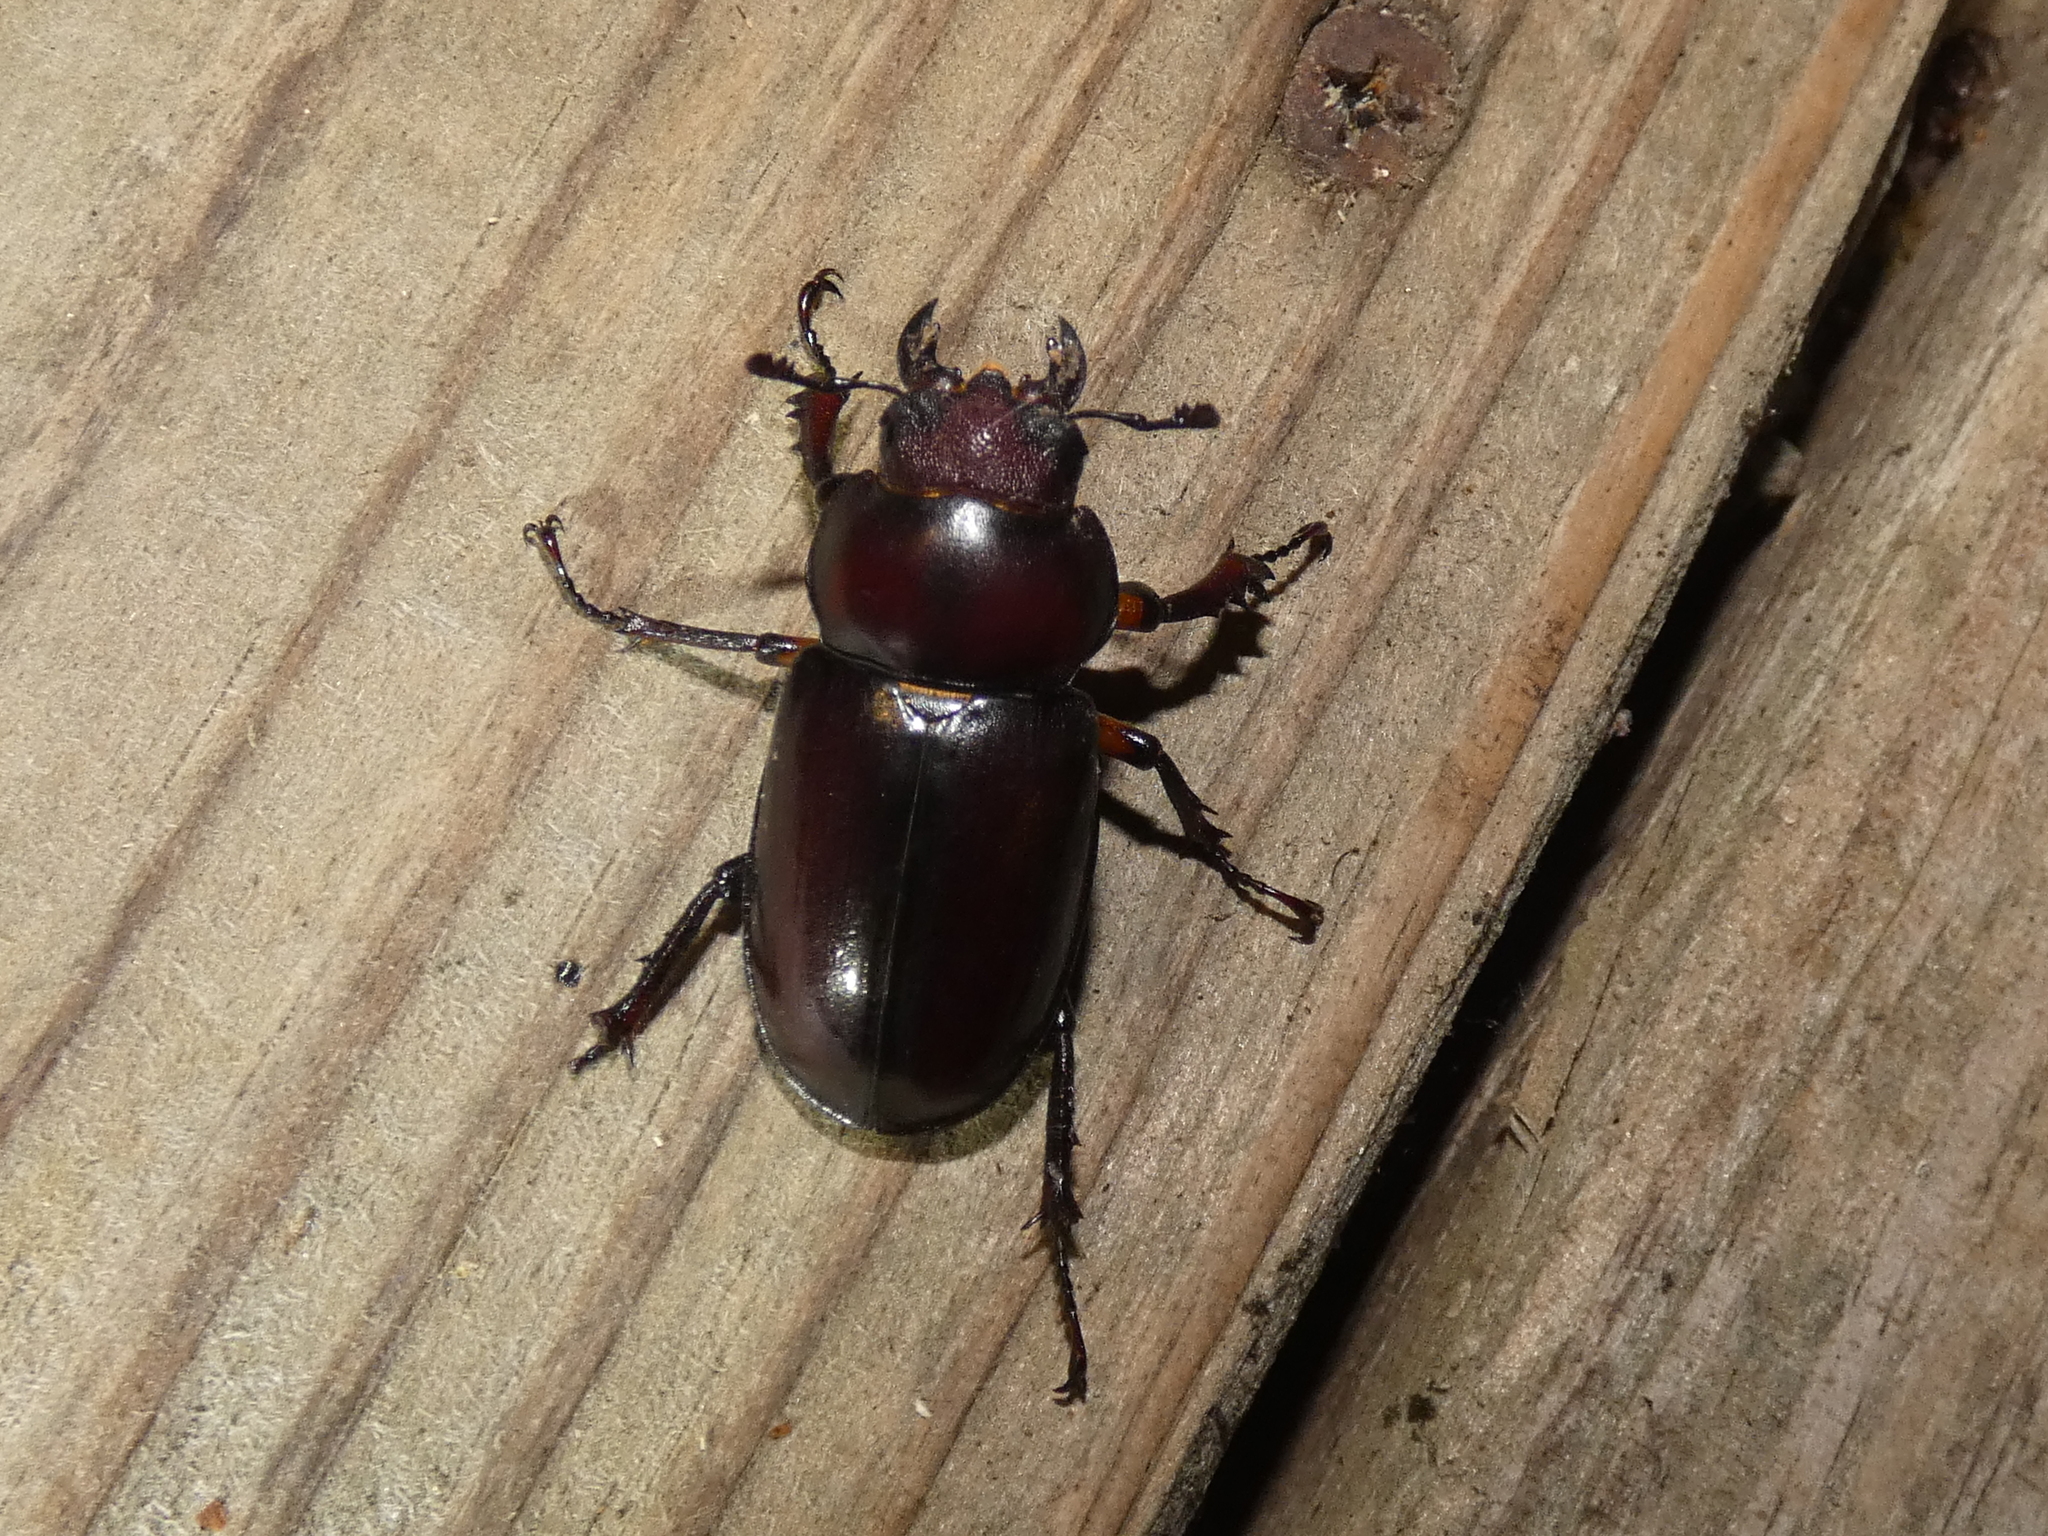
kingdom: Animalia
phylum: Arthropoda
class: Insecta
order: Coleoptera
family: Lucanidae
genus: Lucanus
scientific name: Lucanus capreolus
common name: Stag beetle
